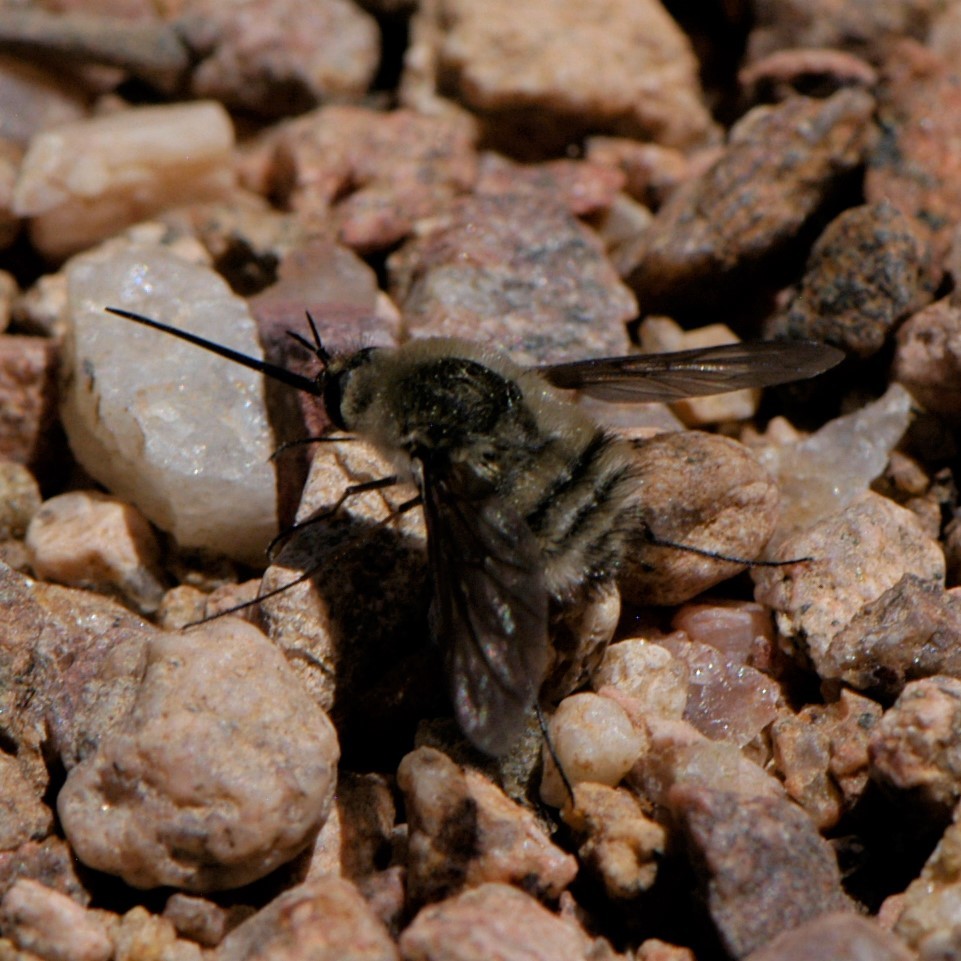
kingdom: Animalia
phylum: Arthropoda
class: Insecta
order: Diptera
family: Bombyliidae
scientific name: Bombyliidae
